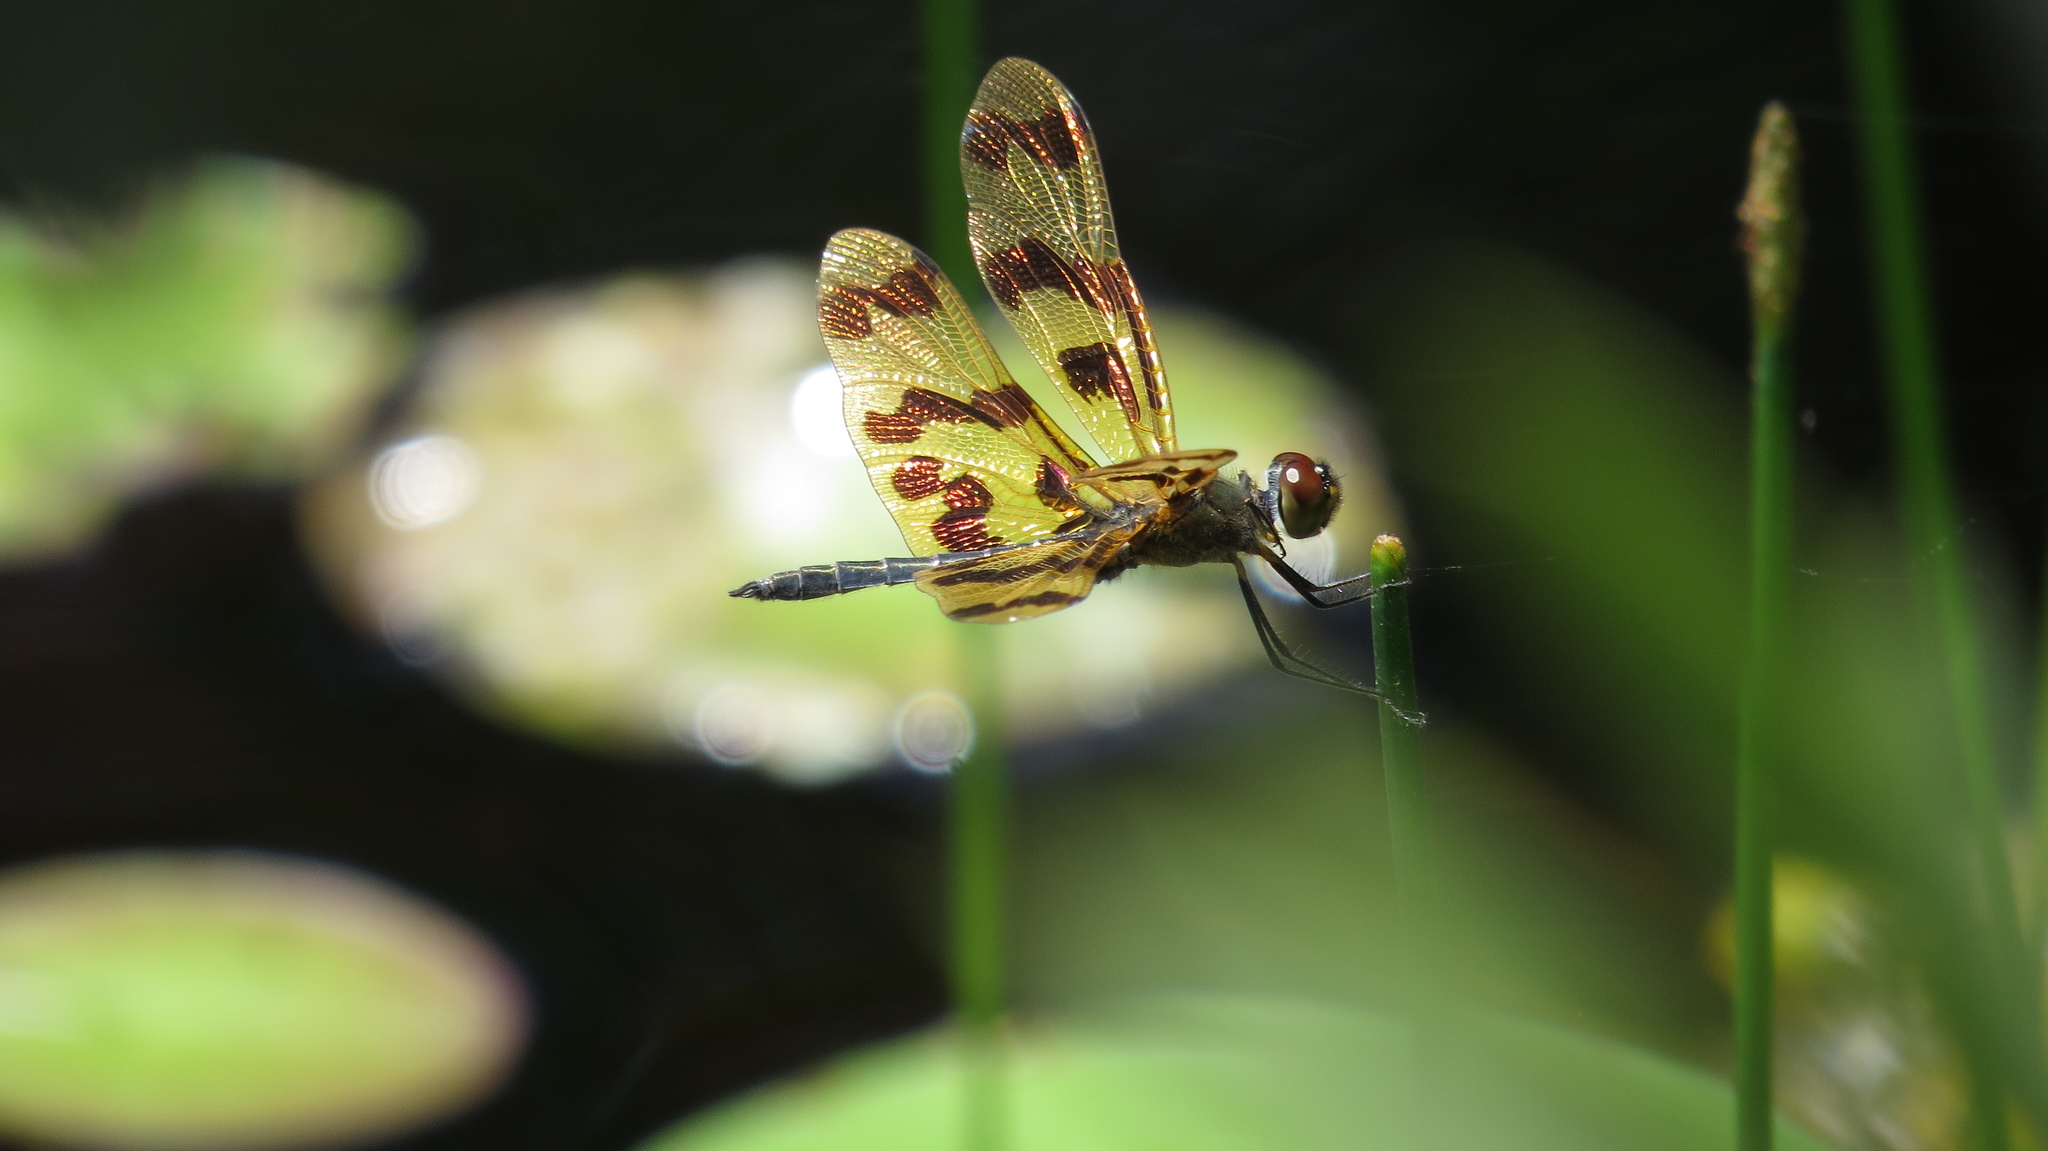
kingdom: Animalia
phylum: Arthropoda
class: Insecta
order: Odonata
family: Libellulidae
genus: Rhyothemis
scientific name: Rhyothemis graphiptera
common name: Graphic flutterer
